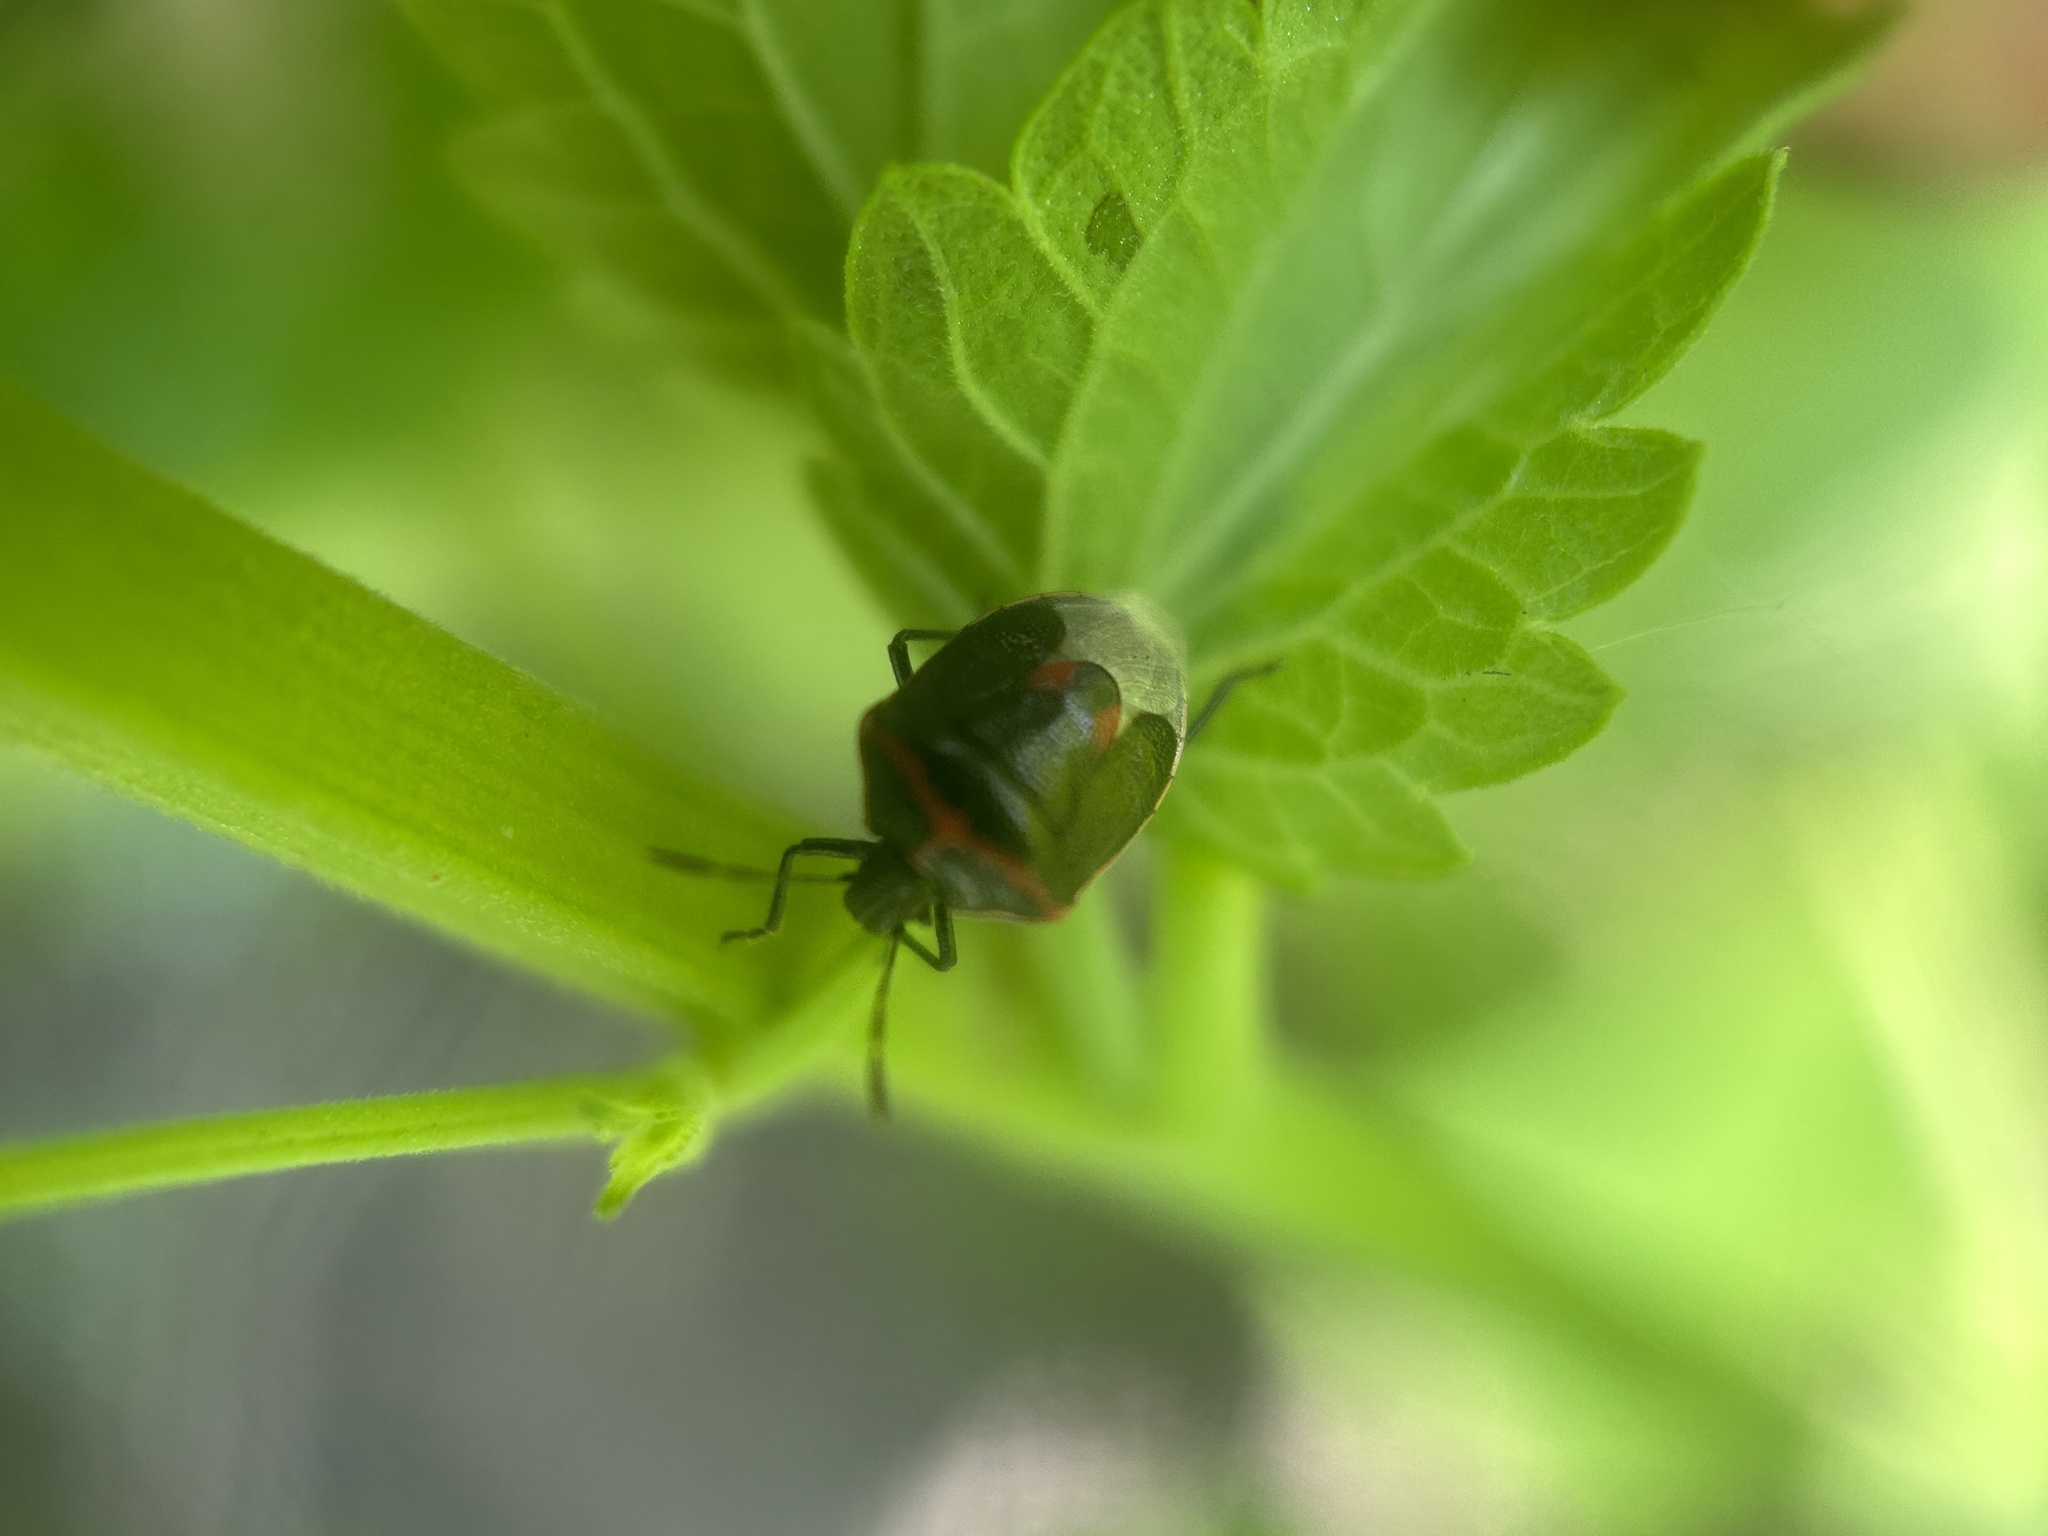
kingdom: Animalia
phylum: Arthropoda
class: Insecta
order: Hemiptera
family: Pentatomidae
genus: Cosmopepla
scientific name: Cosmopepla lintneriana
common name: Twice-stabbed stink bug
